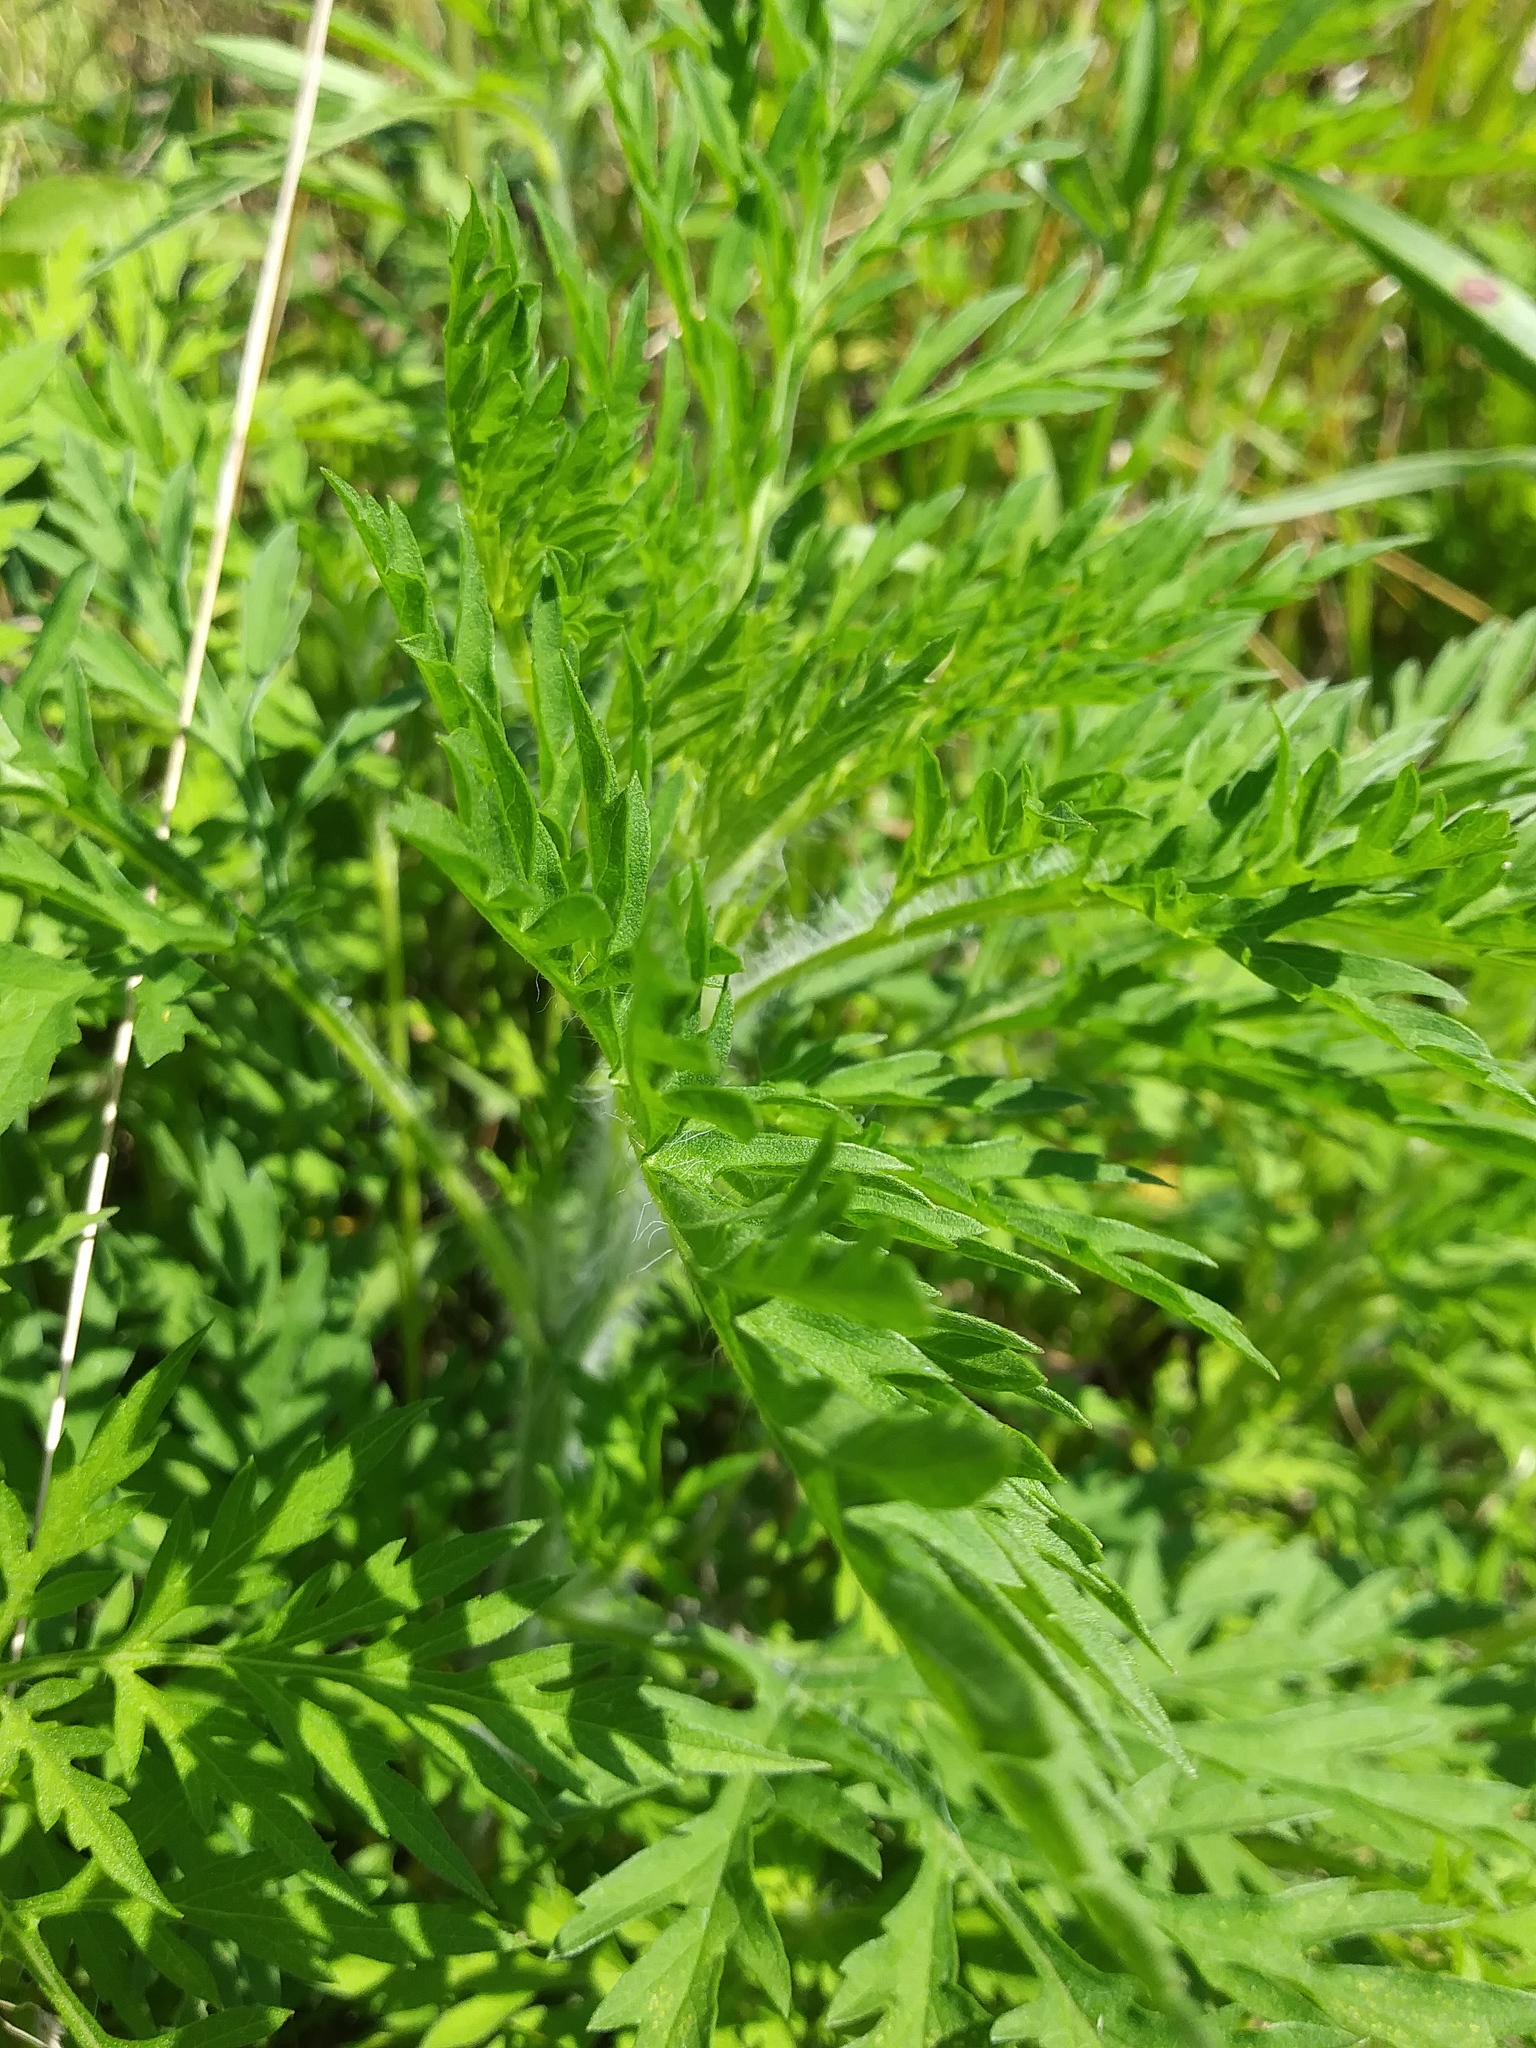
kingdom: Plantae
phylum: Tracheophyta
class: Magnoliopsida
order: Asterales
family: Asteraceae
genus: Ambrosia
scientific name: Ambrosia artemisiifolia
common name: Annual ragweed
